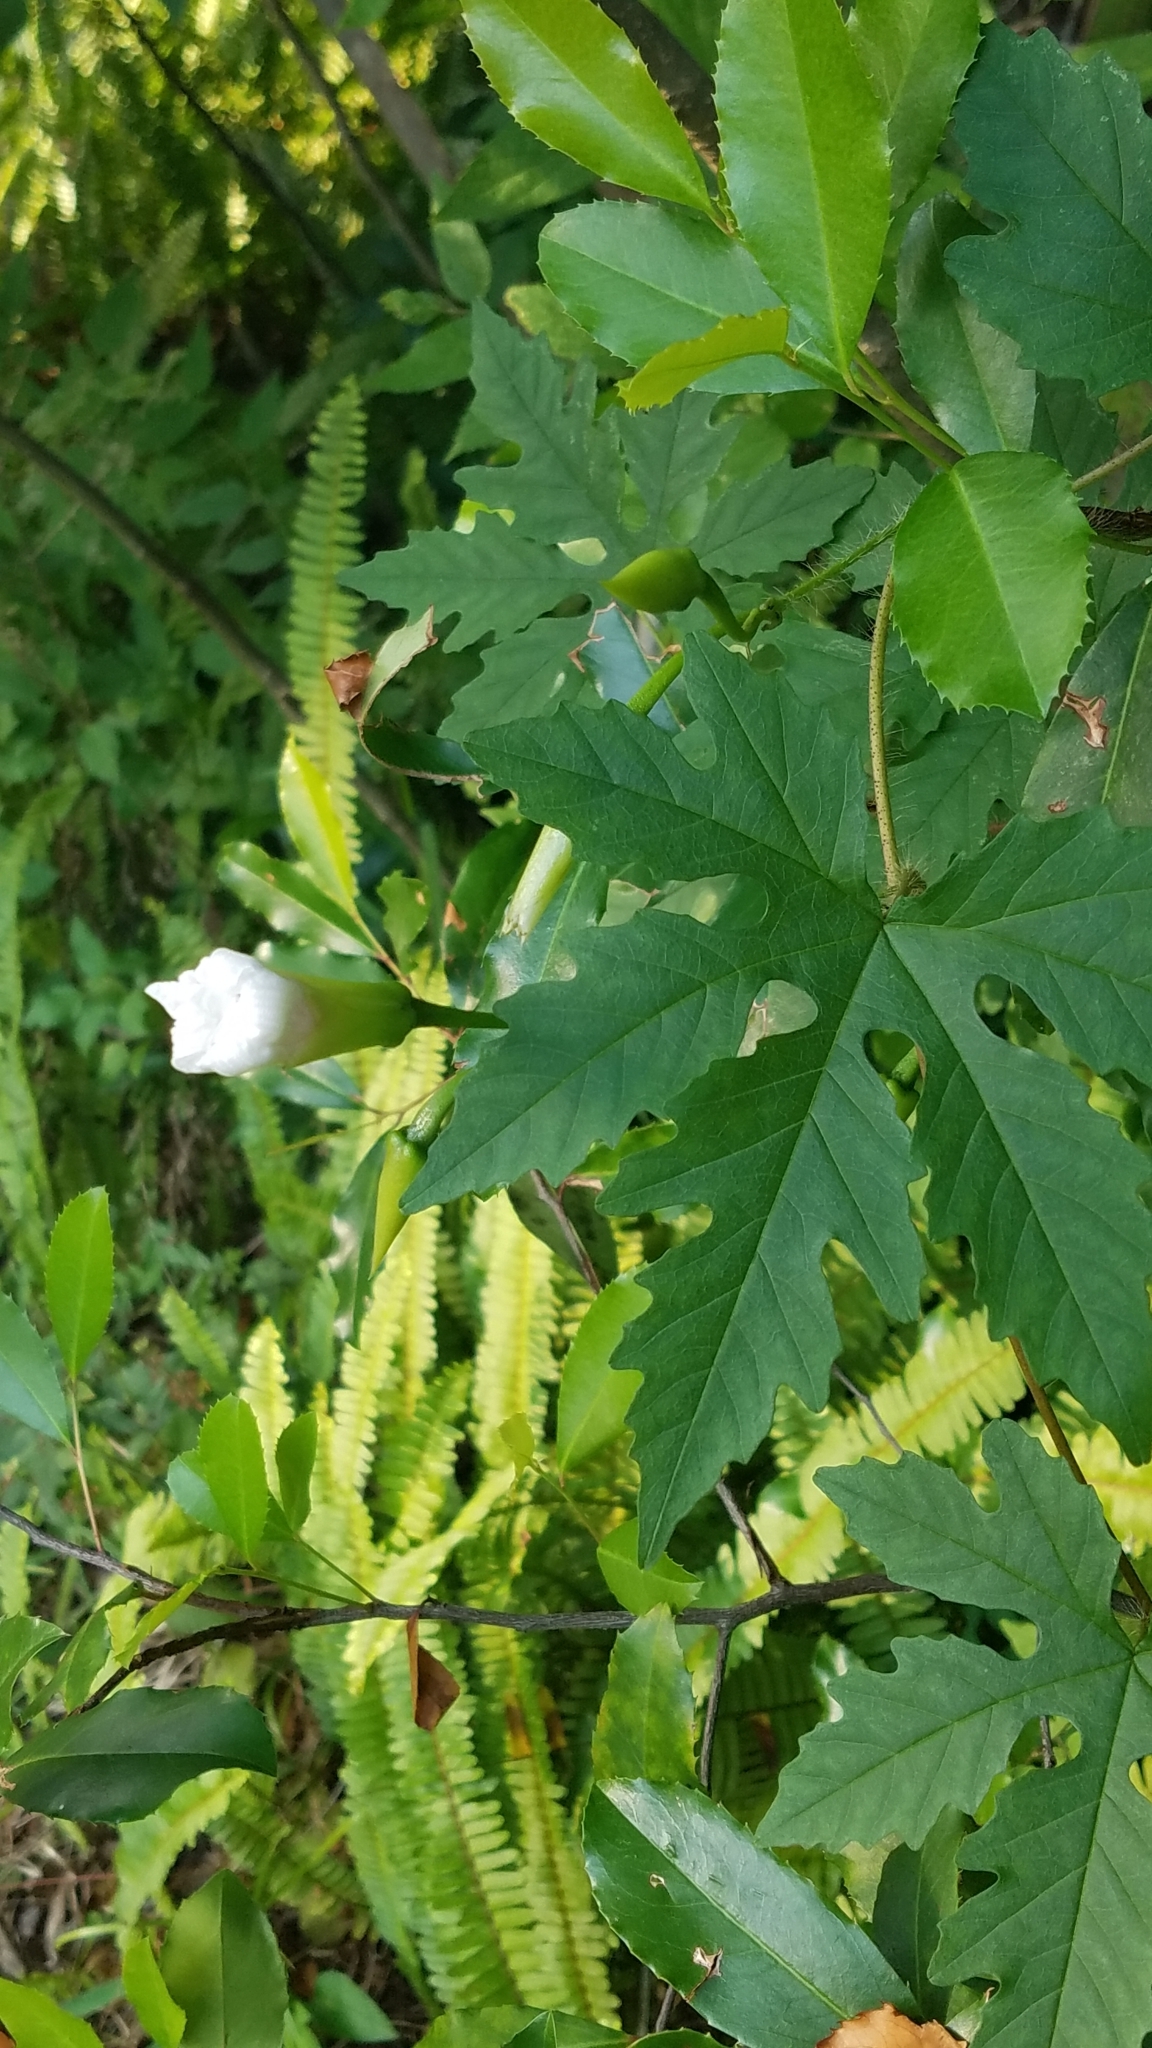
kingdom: Plantae
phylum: Tracheophyta
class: Magnoliopsida
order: Solanales
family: Convolvulaceae
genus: Distimake
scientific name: Distimake dissectus
